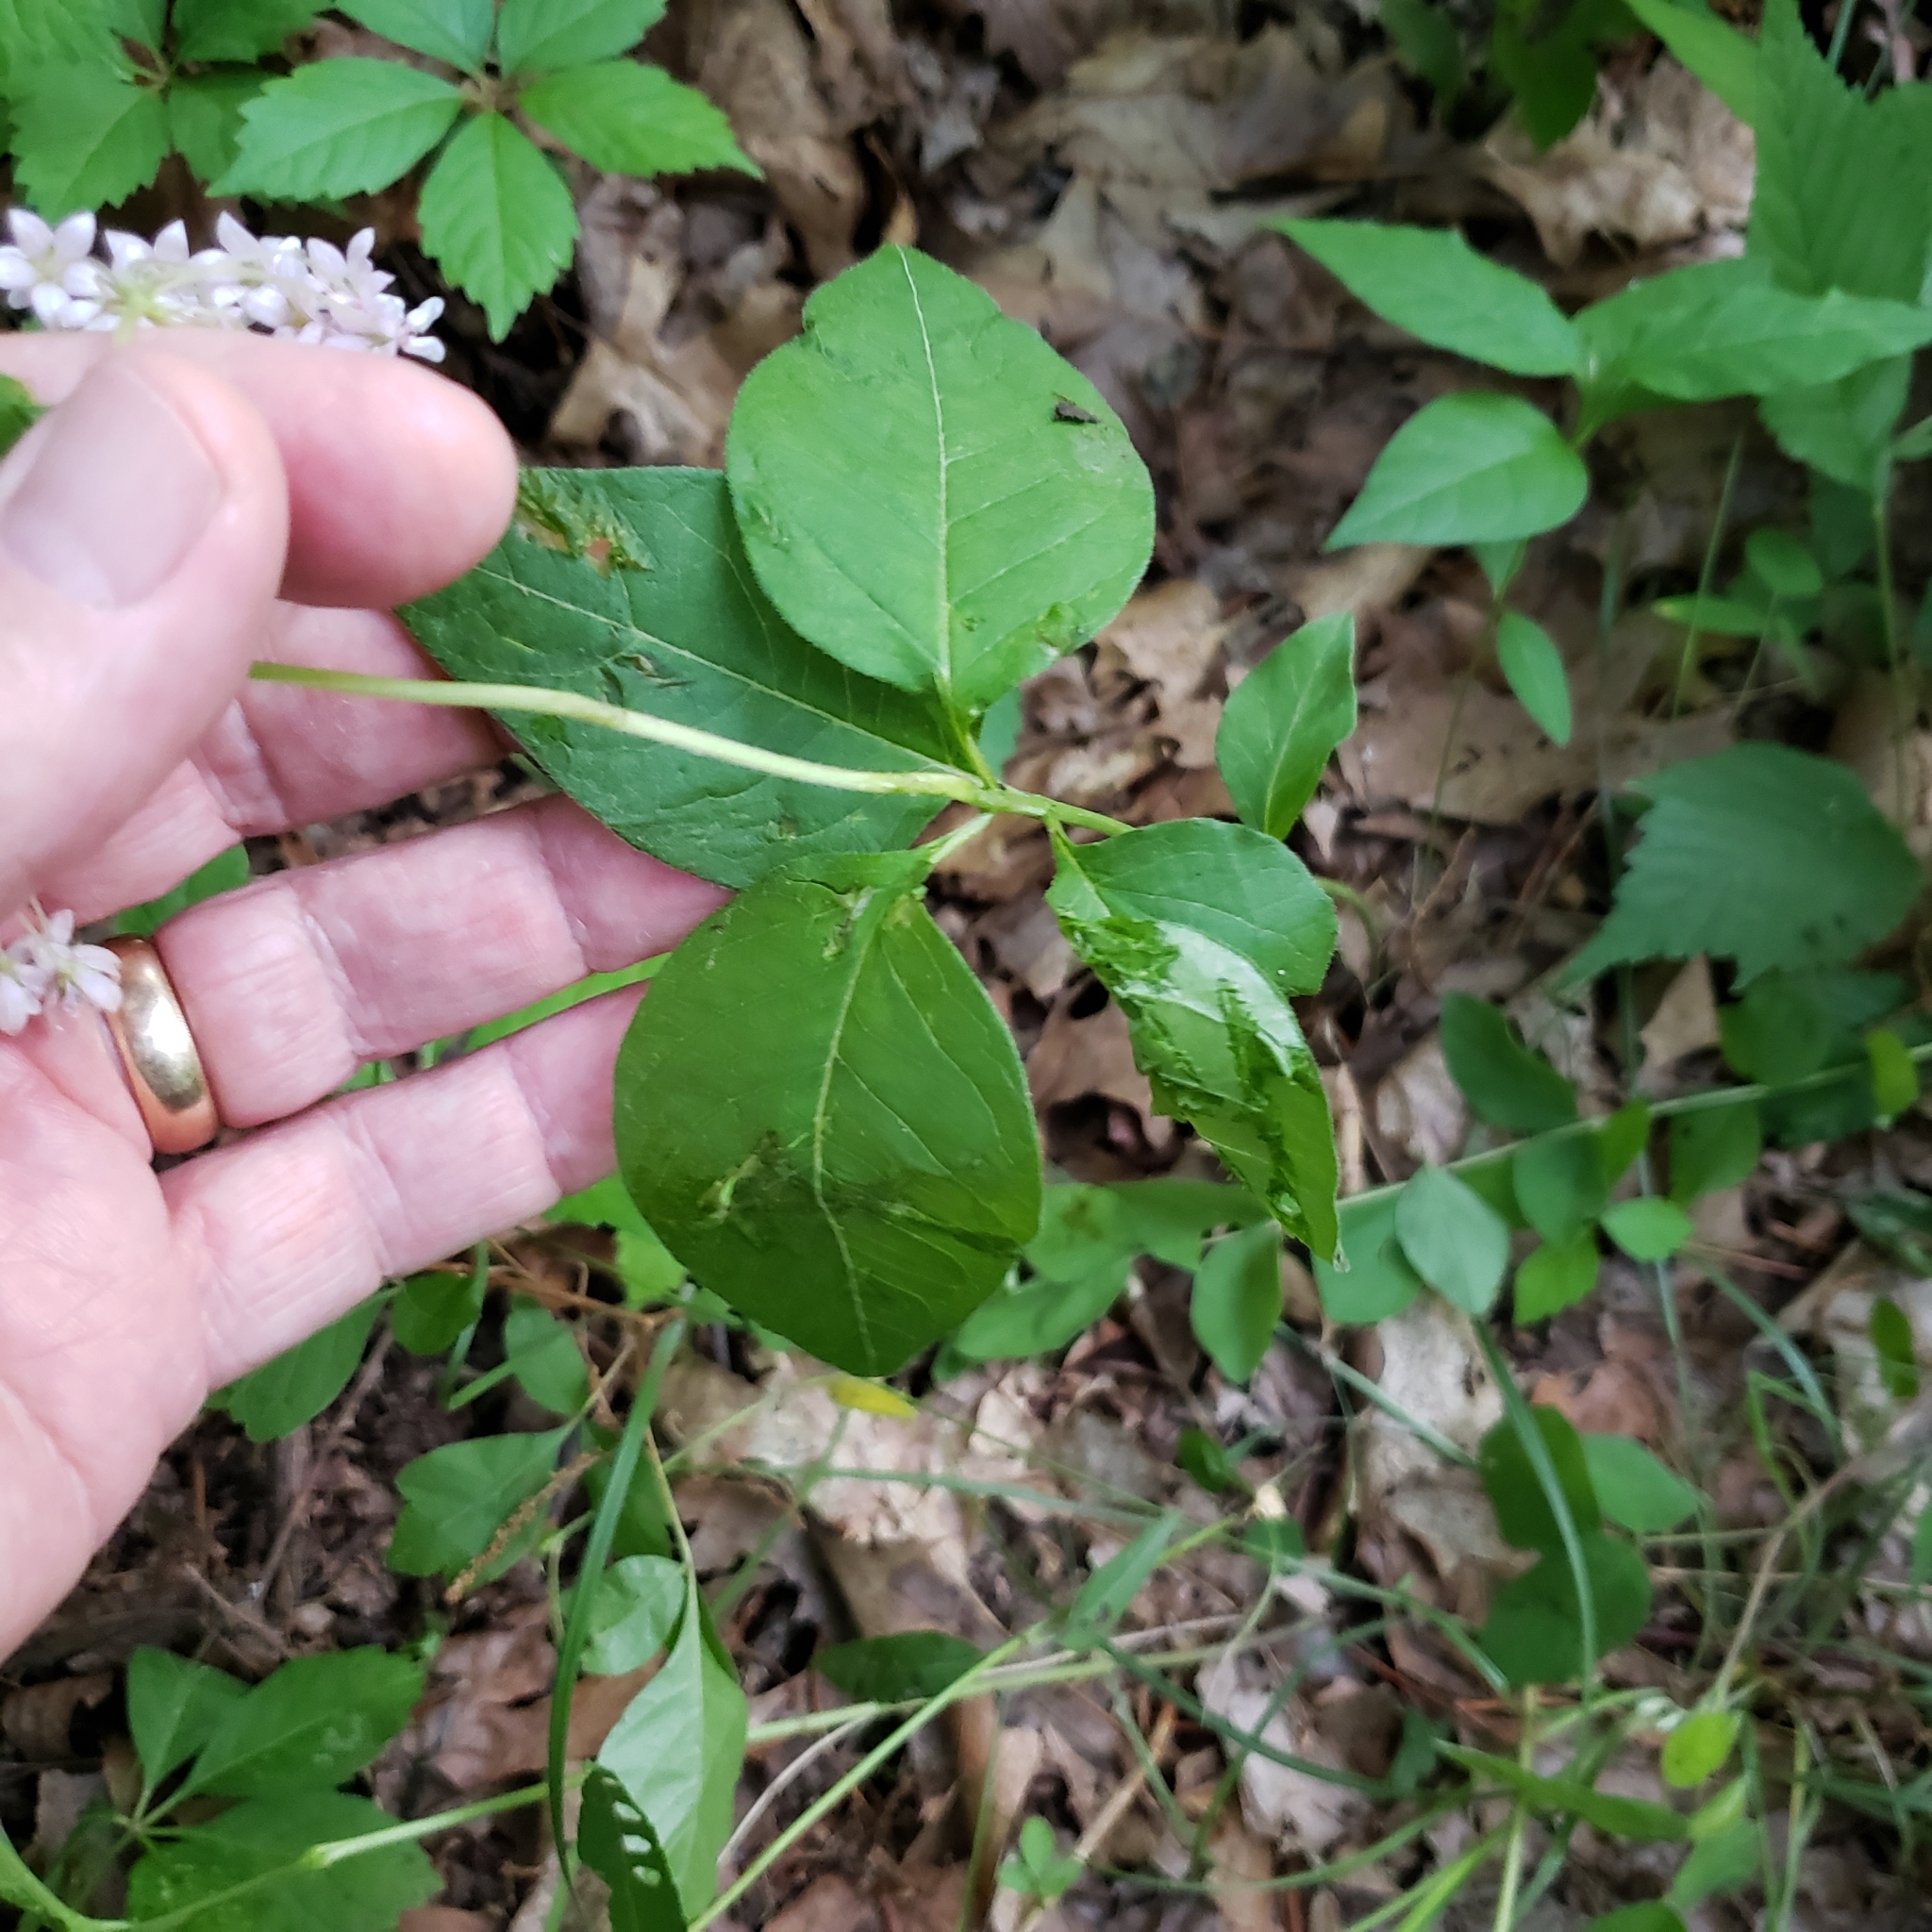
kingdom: Plantae
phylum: Tracheophyta
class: Magnoliopsida
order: Gentianales
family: Apocynaceae
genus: Asclepias
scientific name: Asclepias quadrifolia
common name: Whorled milkweed
